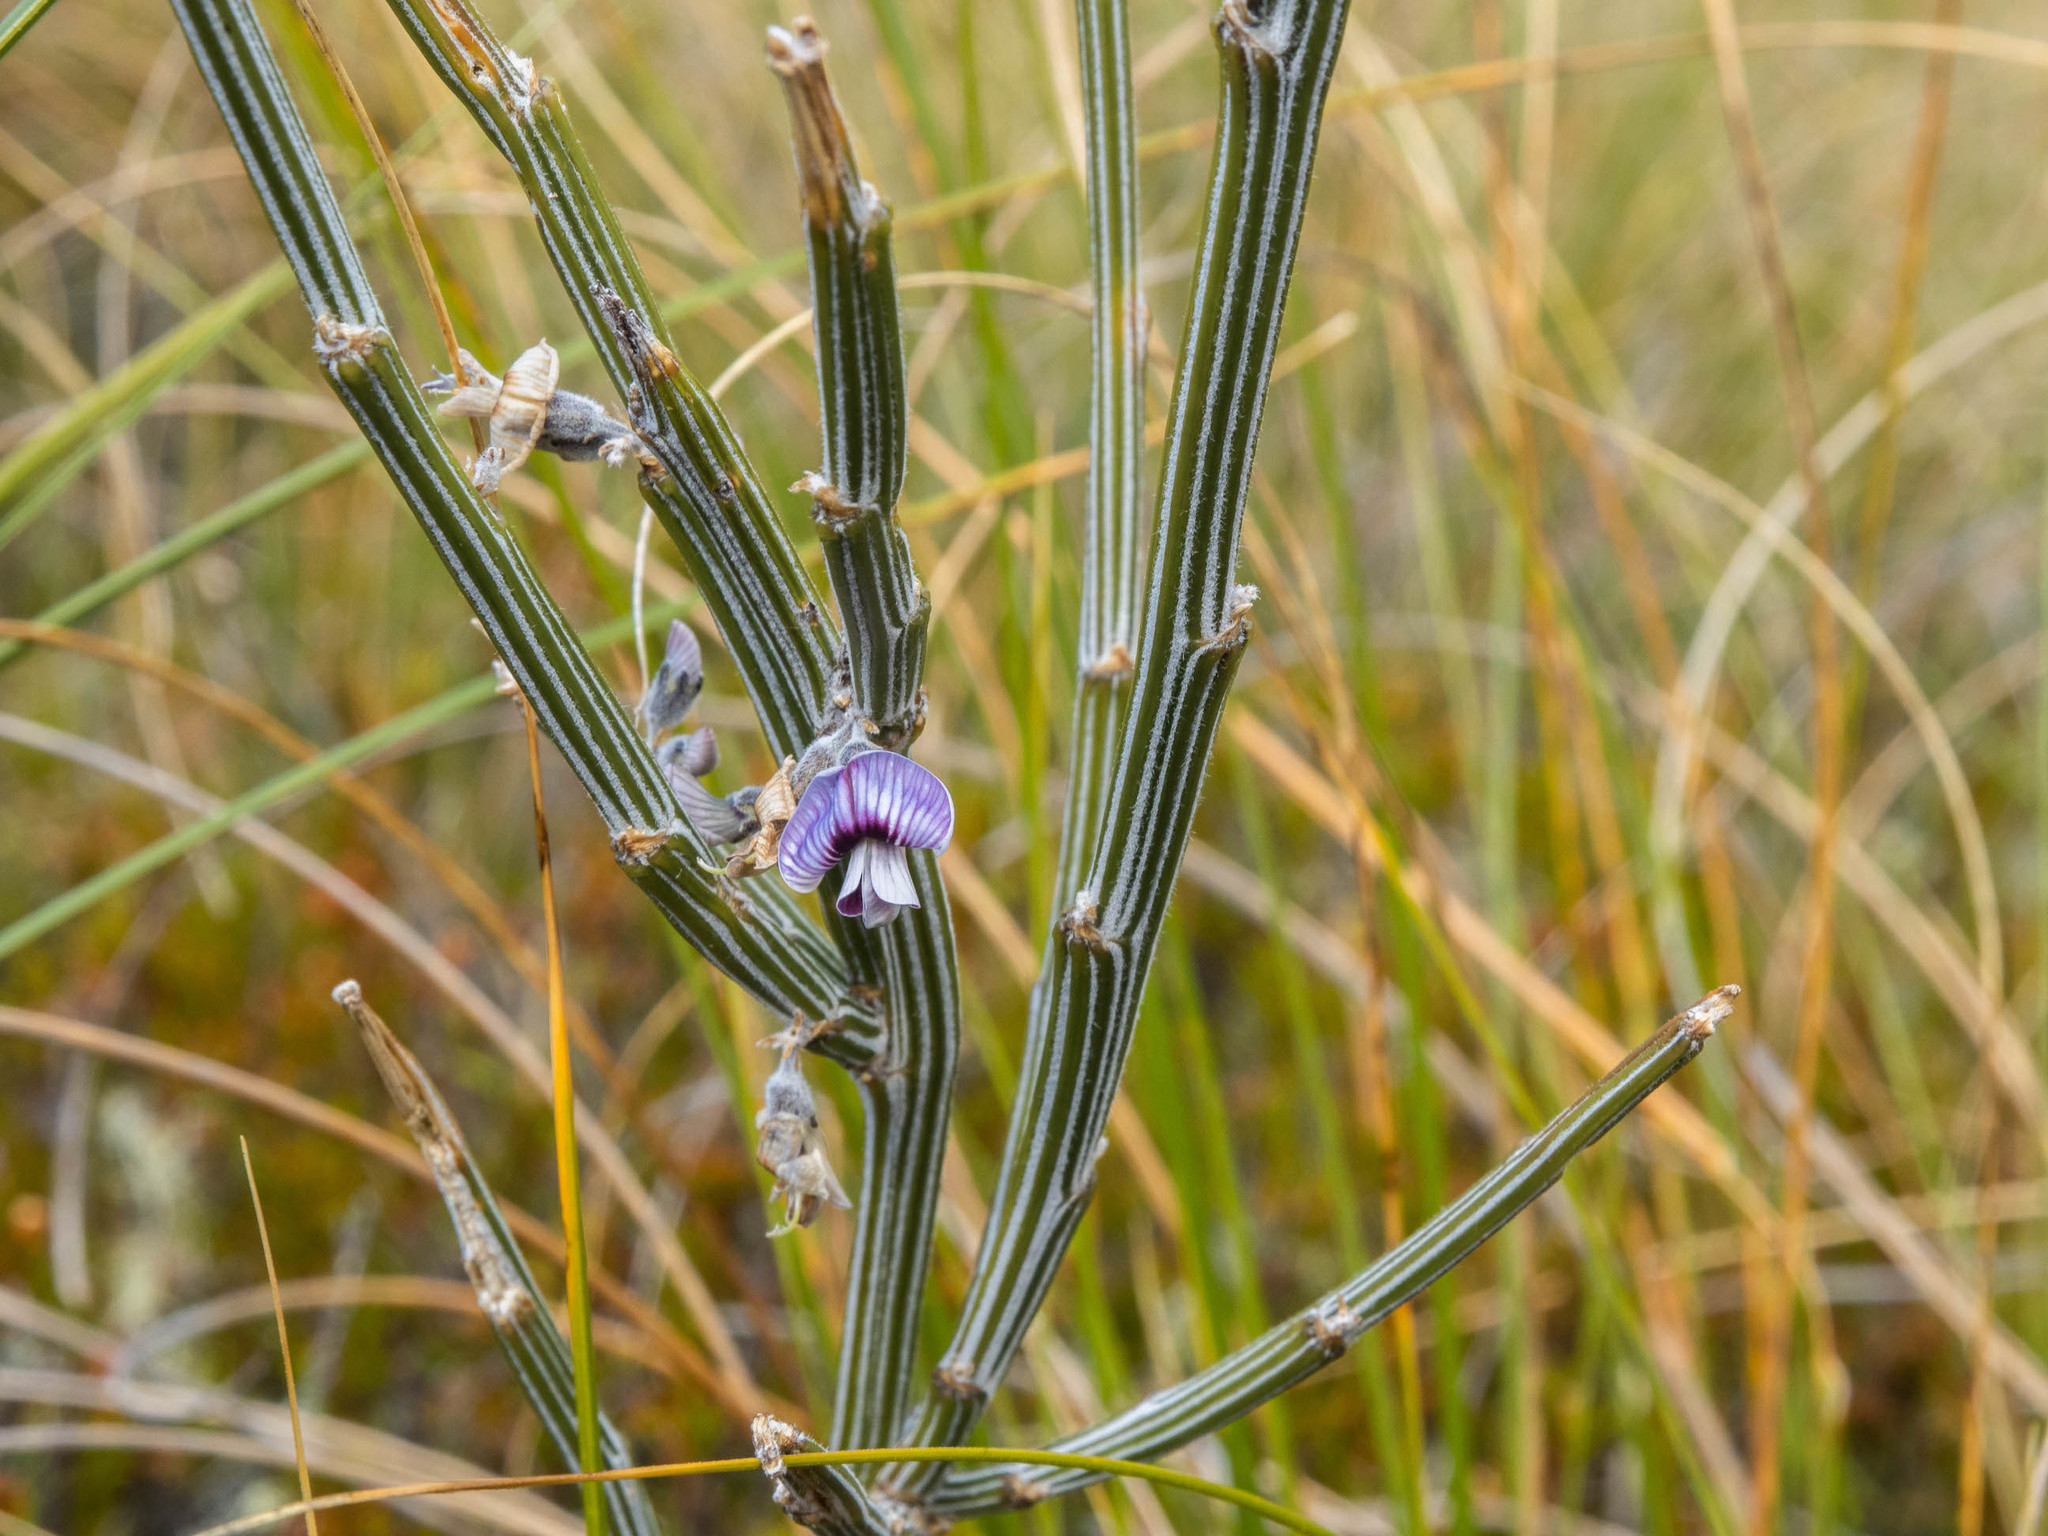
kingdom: Plantae
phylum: Tracheophyta
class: Magnoliopsida
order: Fabales
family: Fabaceae
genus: Carmichaelia
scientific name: Carmichaelia crassicaulis
